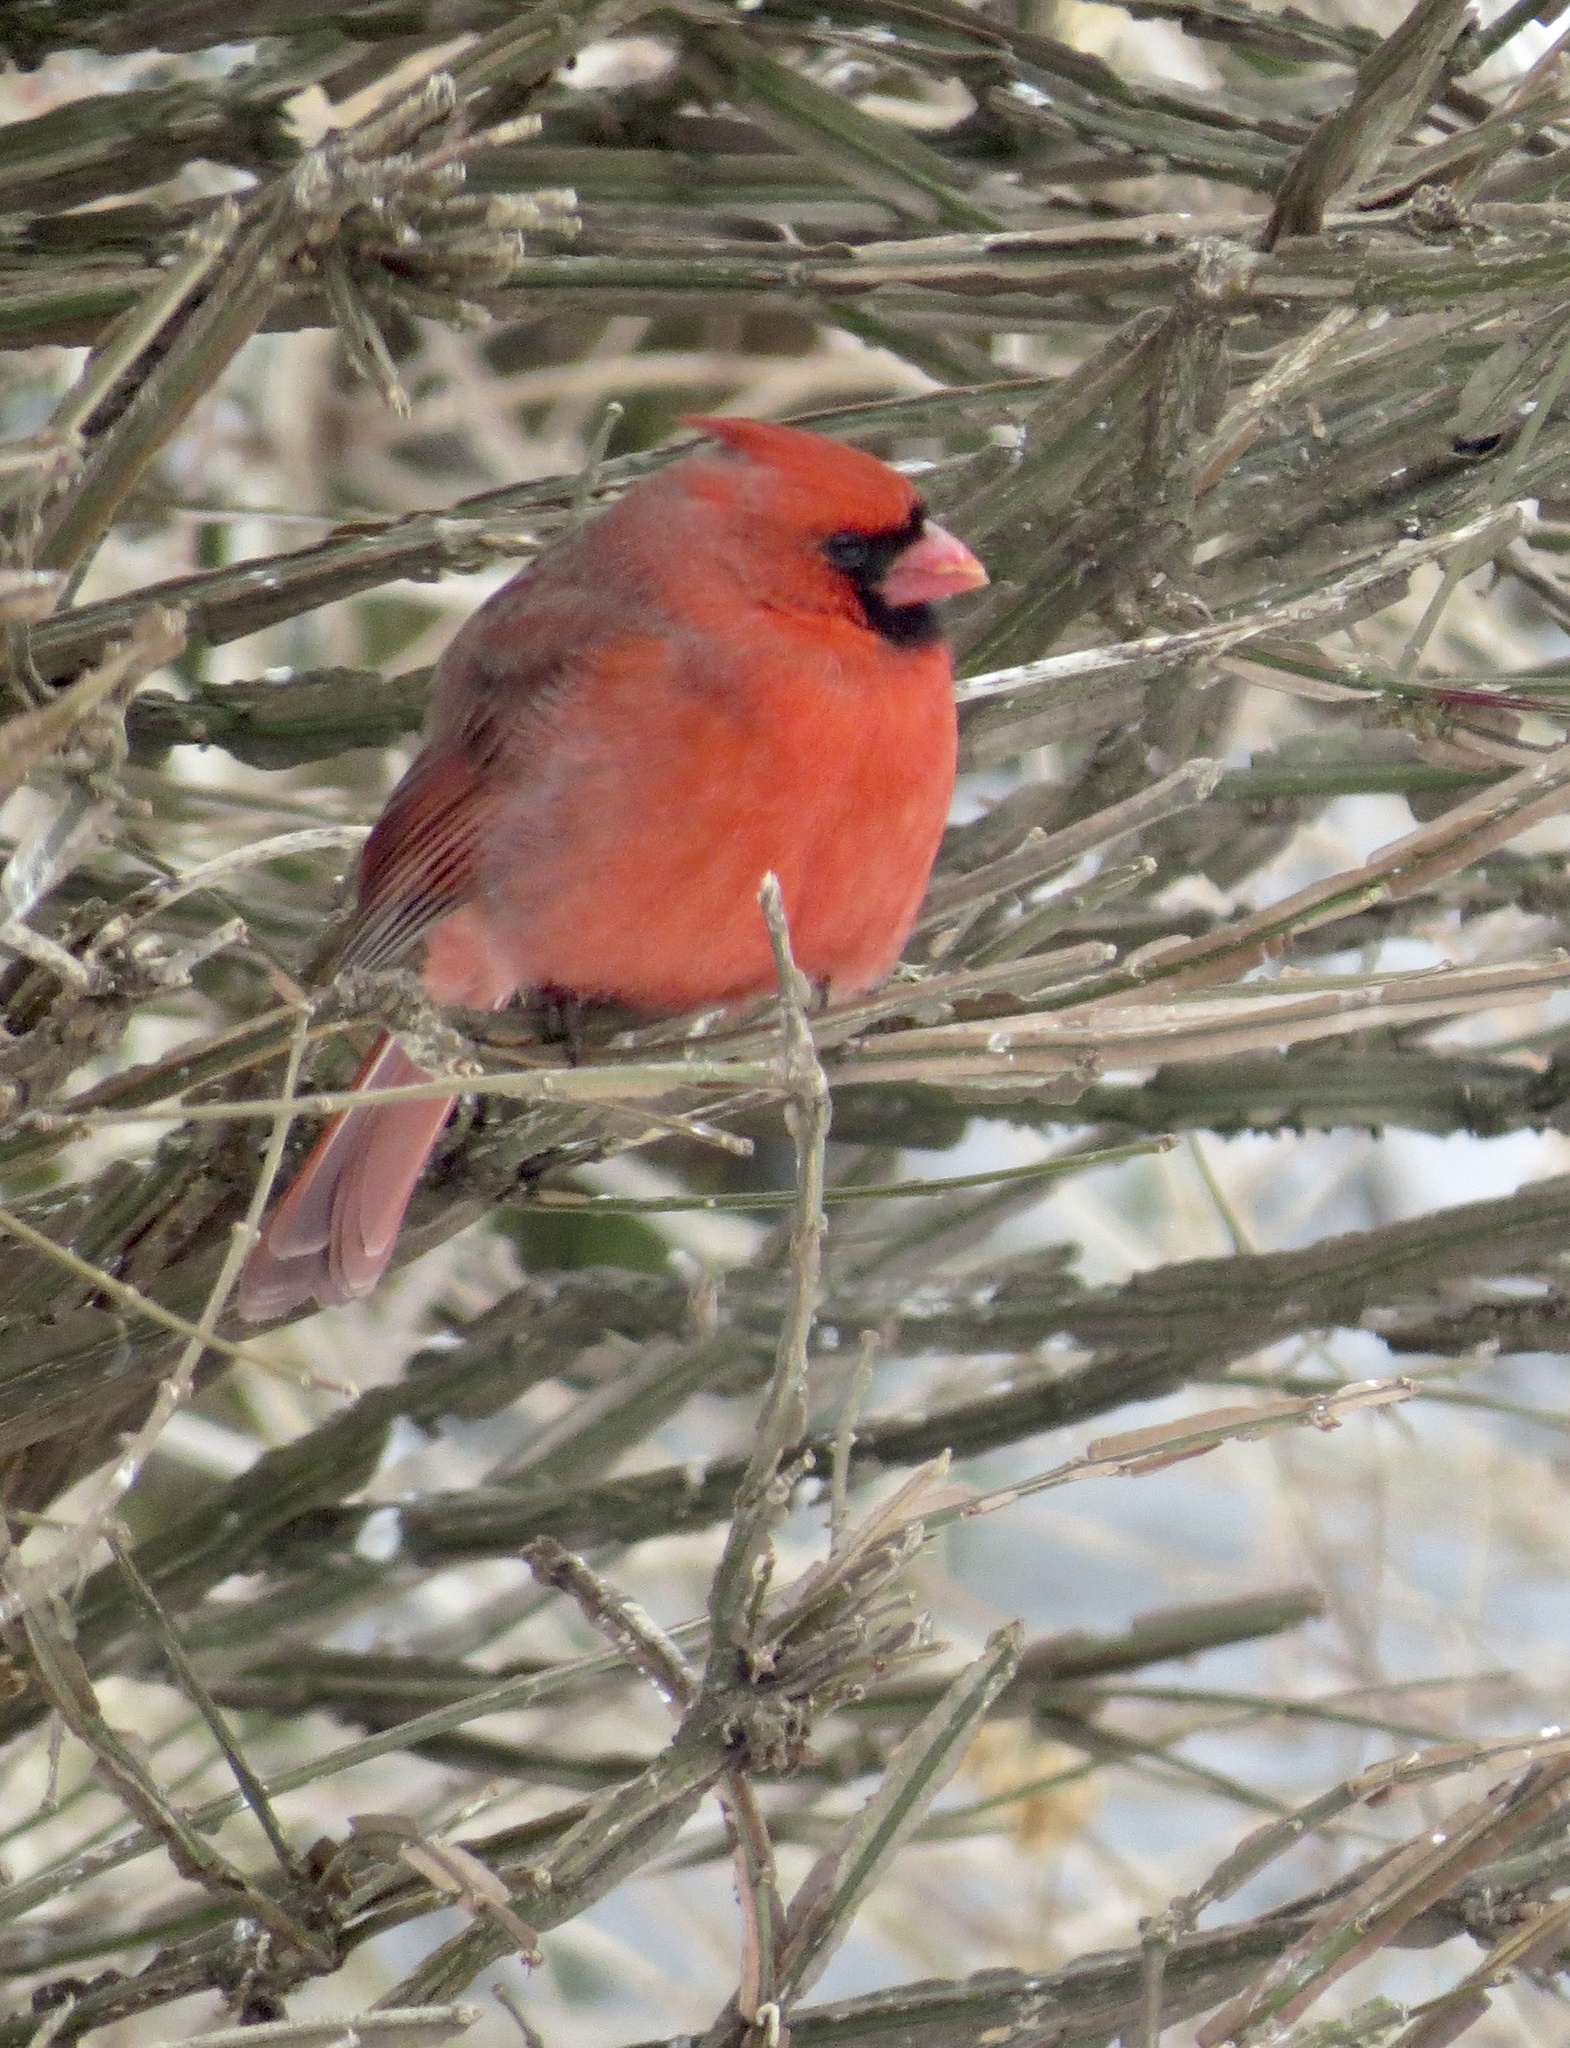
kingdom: Animalia
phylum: Chordata
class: Aves
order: Passeriformes
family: Cardinalidae
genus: Cardinalis
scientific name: Cardinalis cardinalis
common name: Northern cardinal
